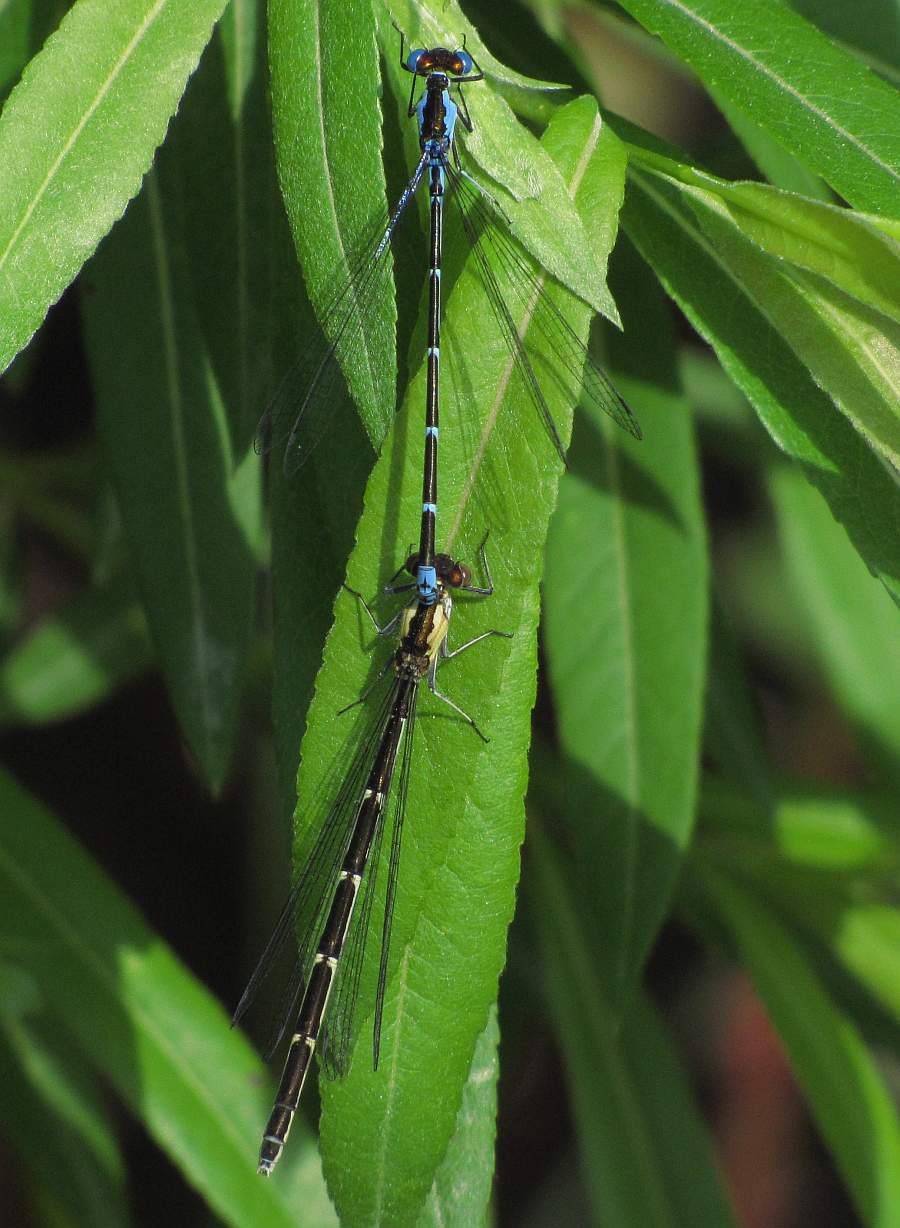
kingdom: Animalia
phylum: Arthropoda
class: Insecta
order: Odonata
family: Coenagrionidae
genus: Chromagrion
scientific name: Chromagrion conditum
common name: Aurora damsel
